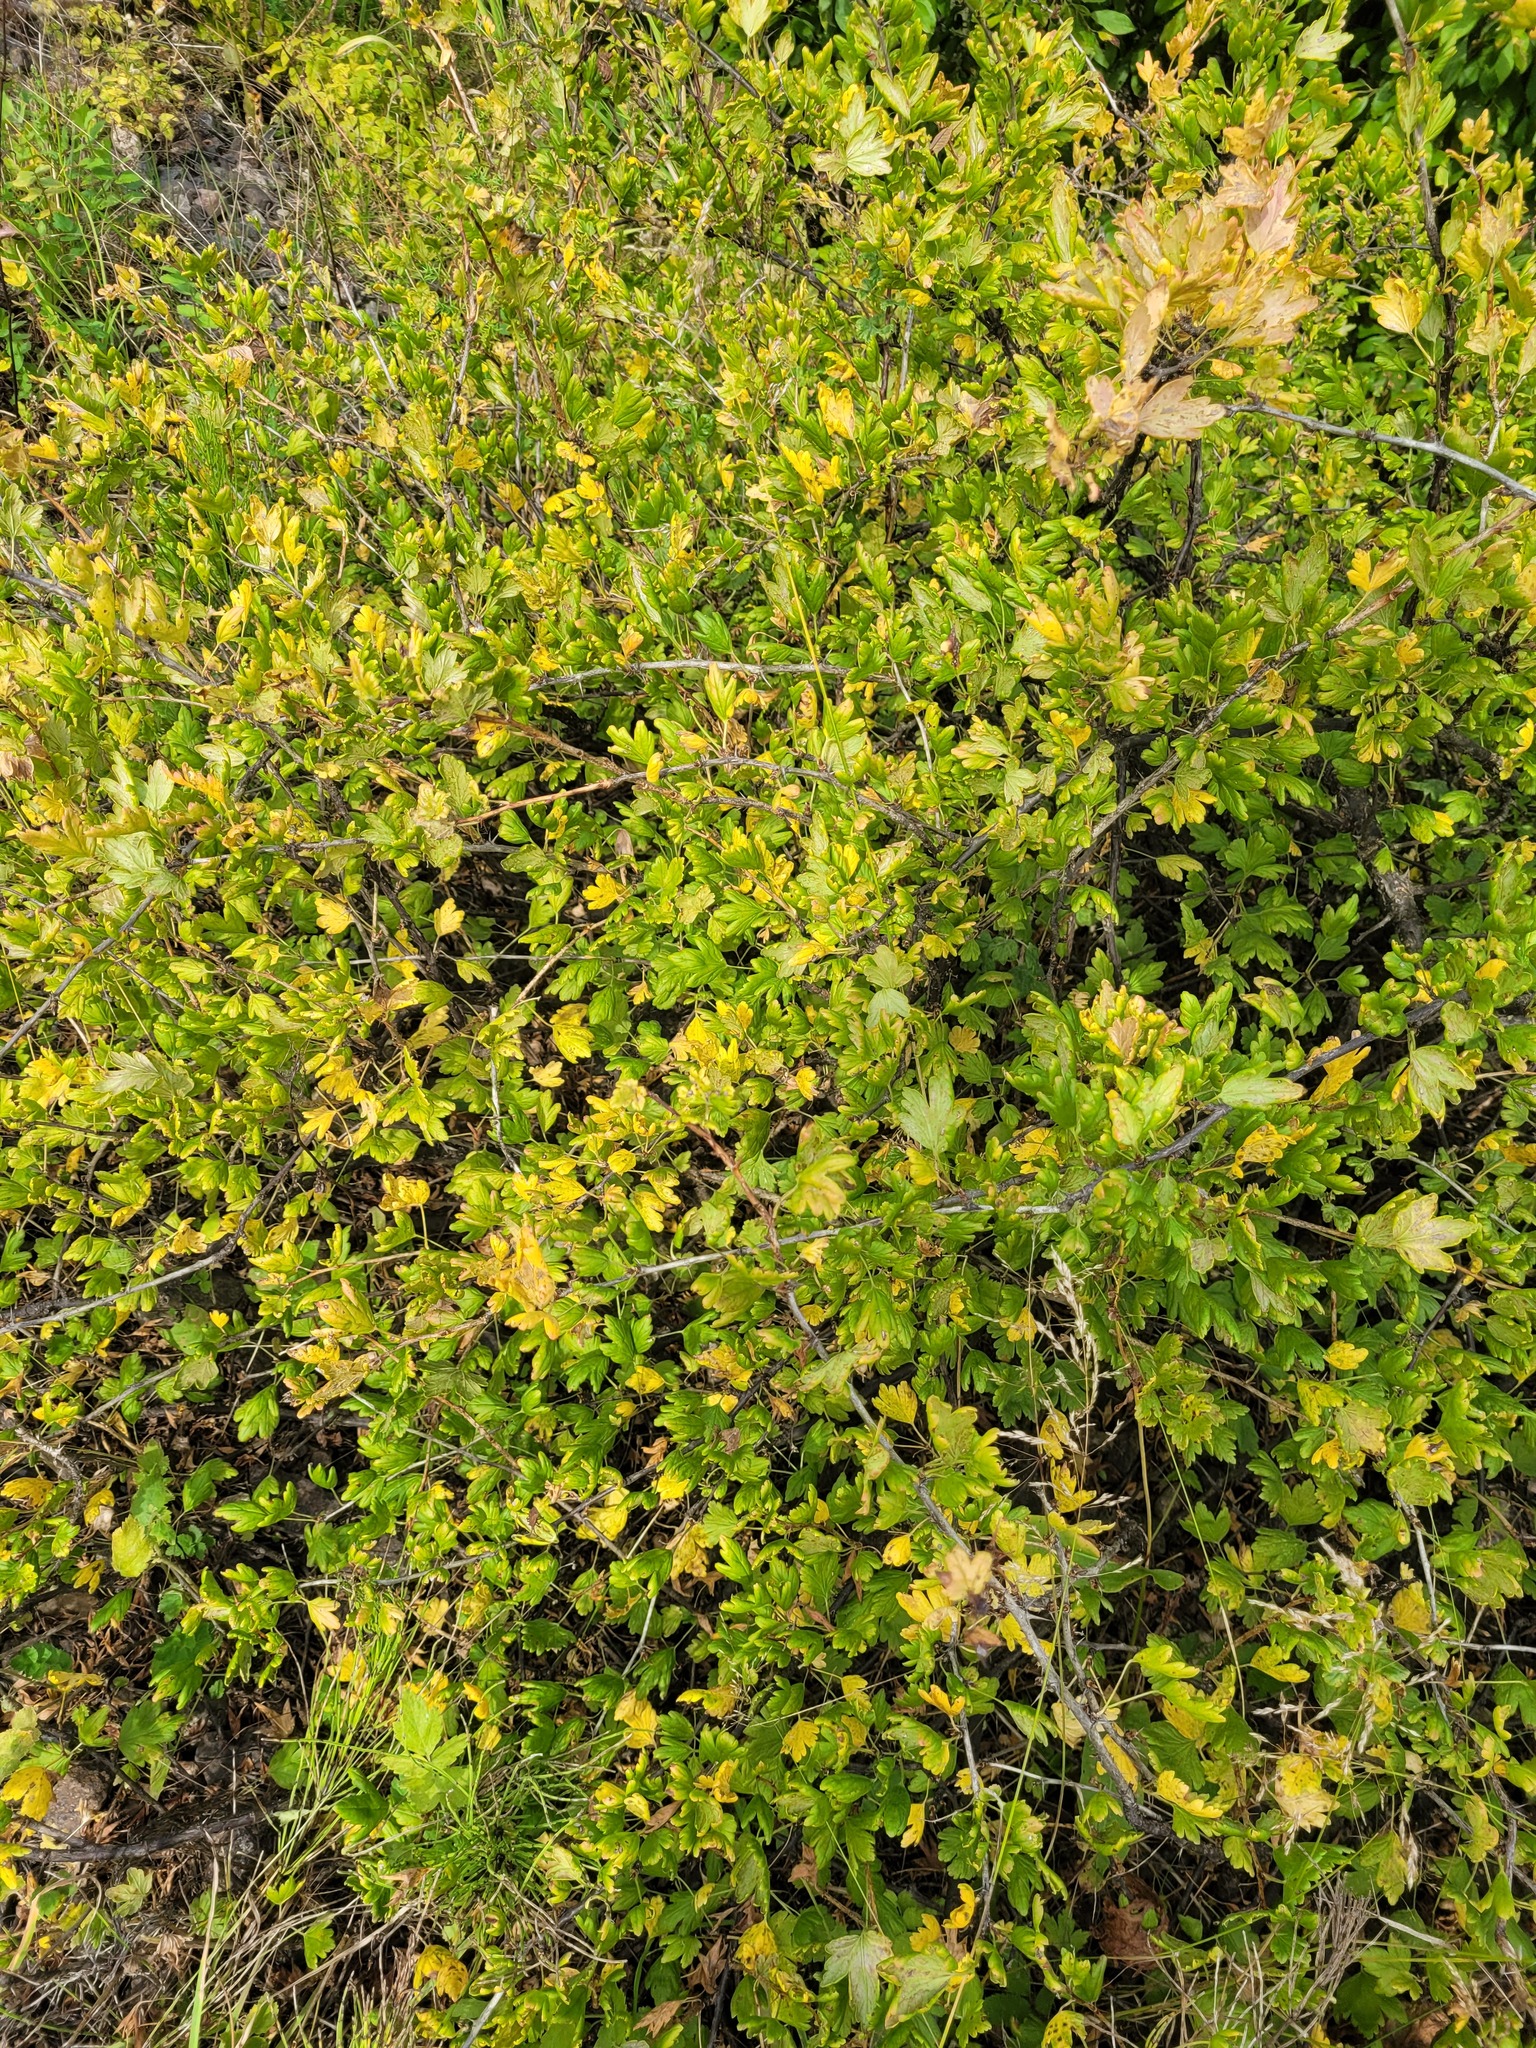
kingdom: Plantae
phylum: Tracheophyta
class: Magnoliopsida
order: Saxifragales
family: Grossulariaceae
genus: Ribes
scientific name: Ribes uva-crispa
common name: Gooseberry
